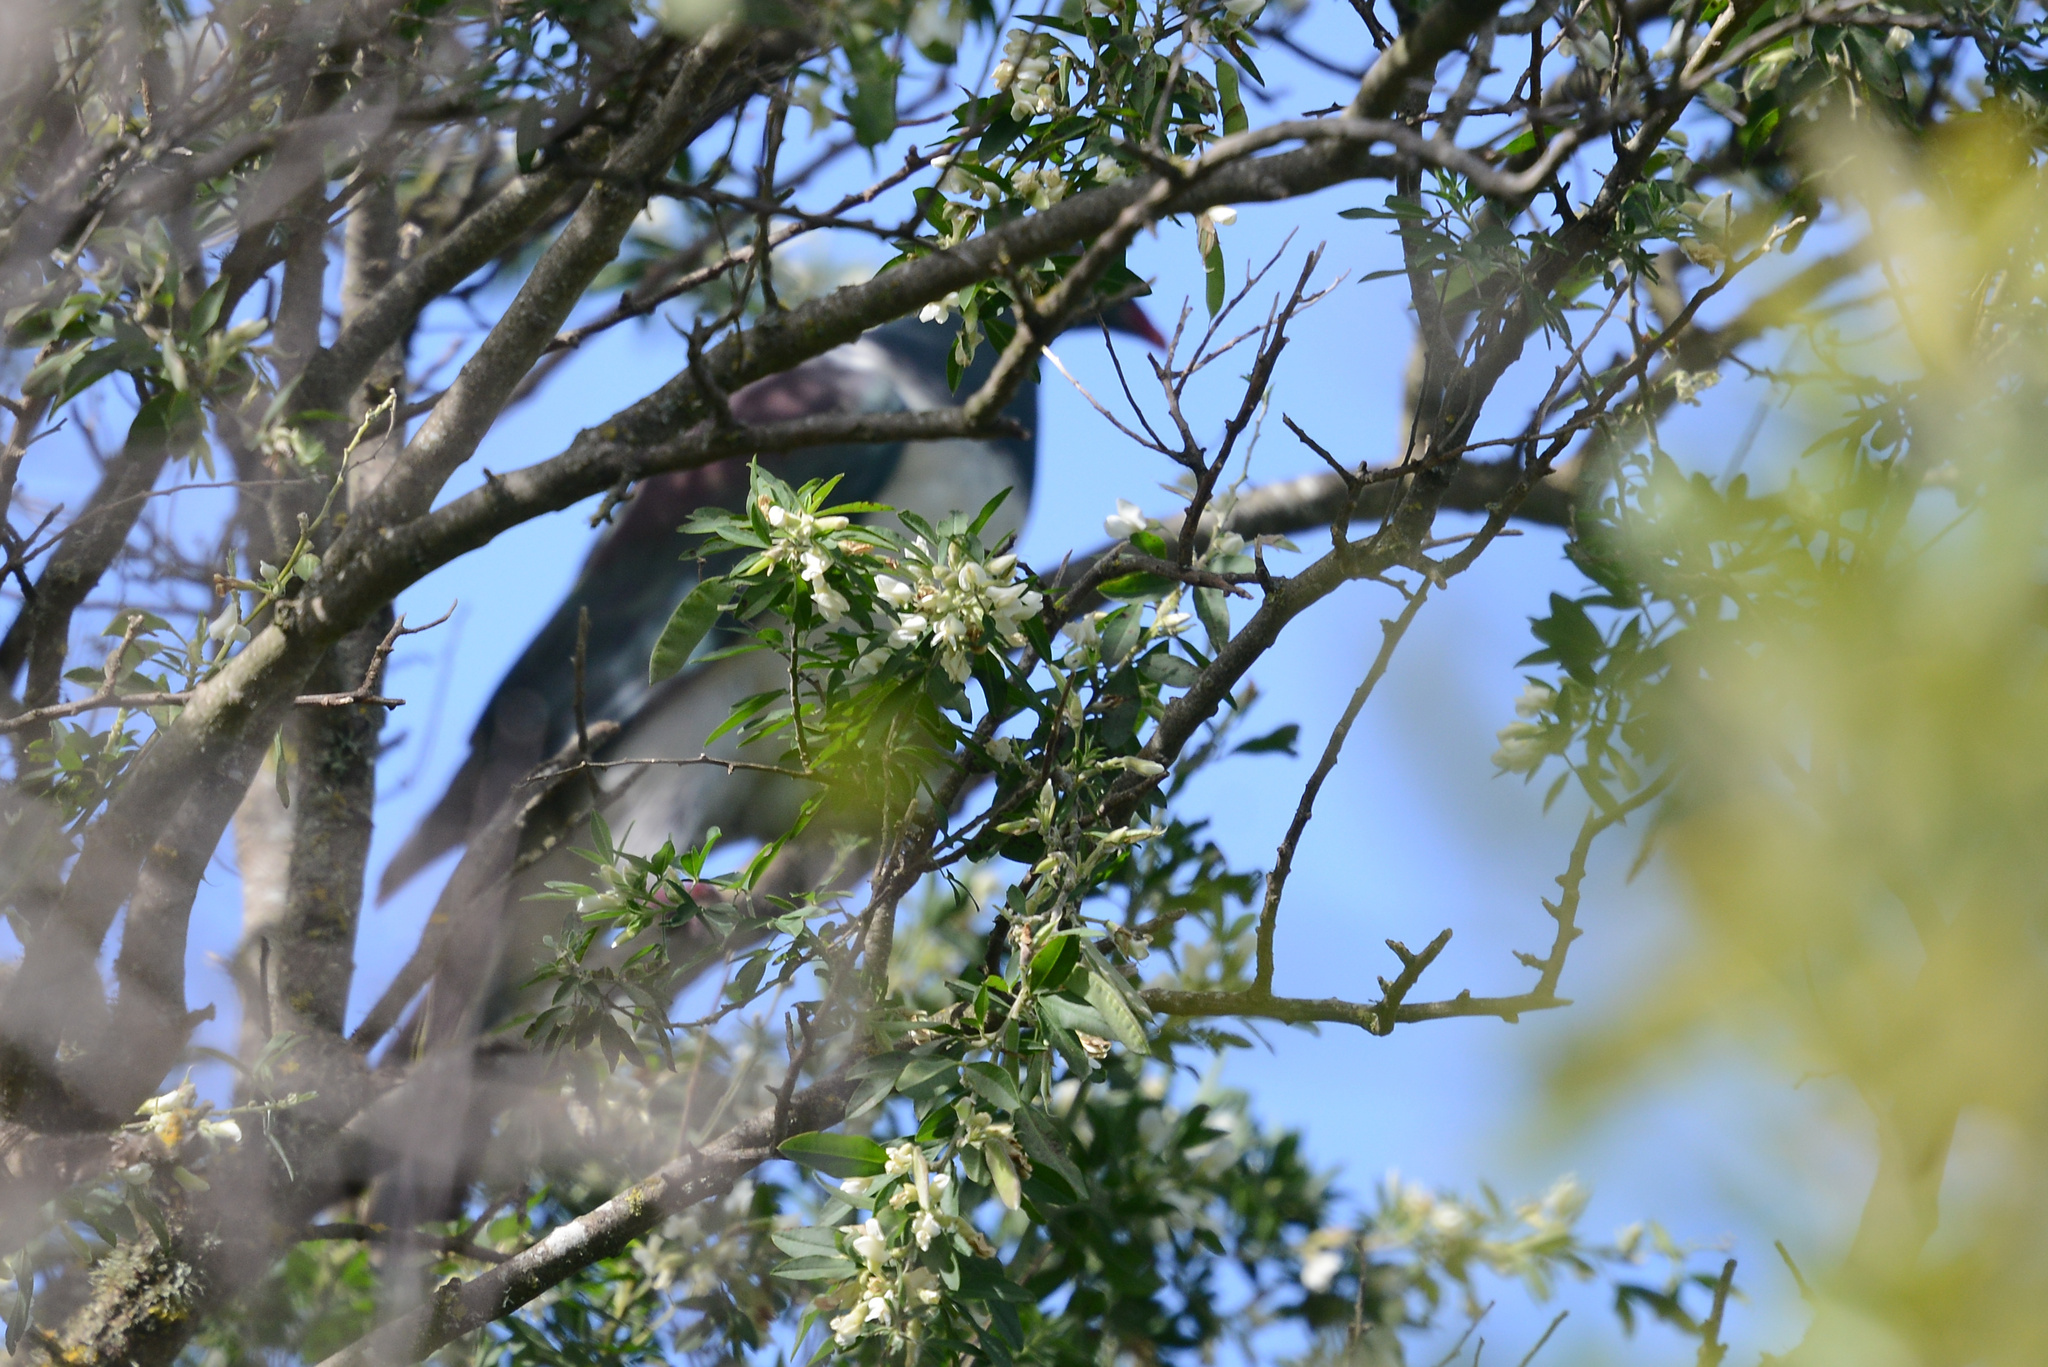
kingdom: Animalia
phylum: Chordata
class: Aves
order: Columbiformes
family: Columbidae
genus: Hemiphaga
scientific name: Hemiphaga novaeseelandiae
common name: New zealand pigeon
